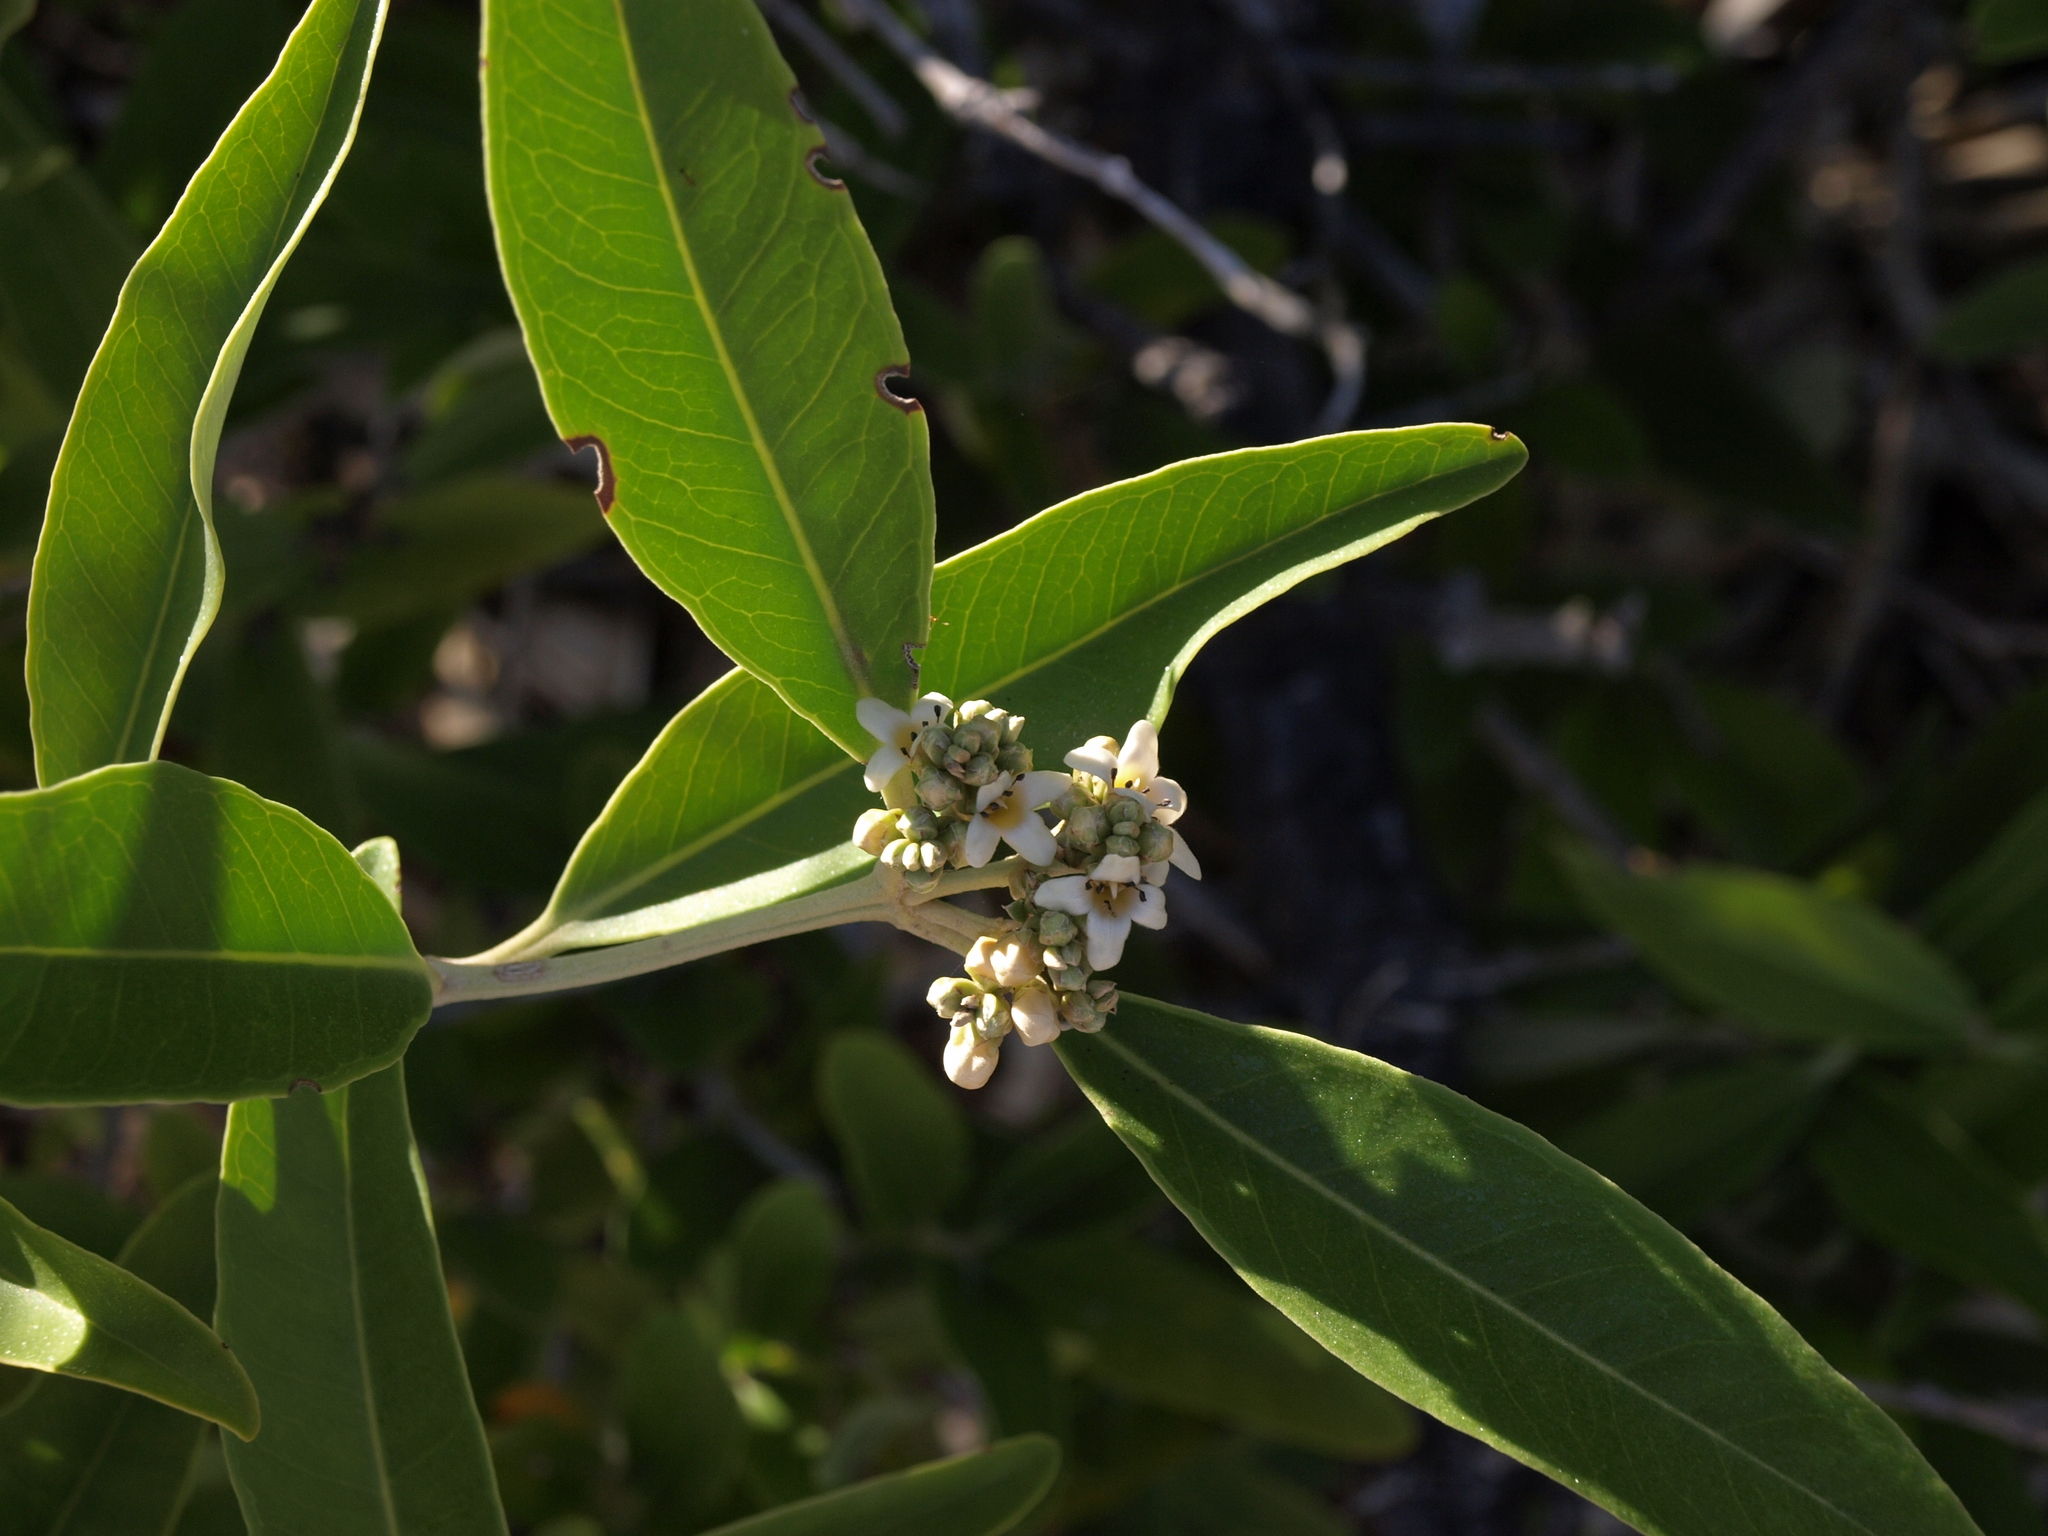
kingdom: Plantae
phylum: Tracheophyta
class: Magnoliopsida
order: Lamiales
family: Acanthaceae
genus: Avicennia
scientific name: Avicennia germinans
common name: Black mangrove
